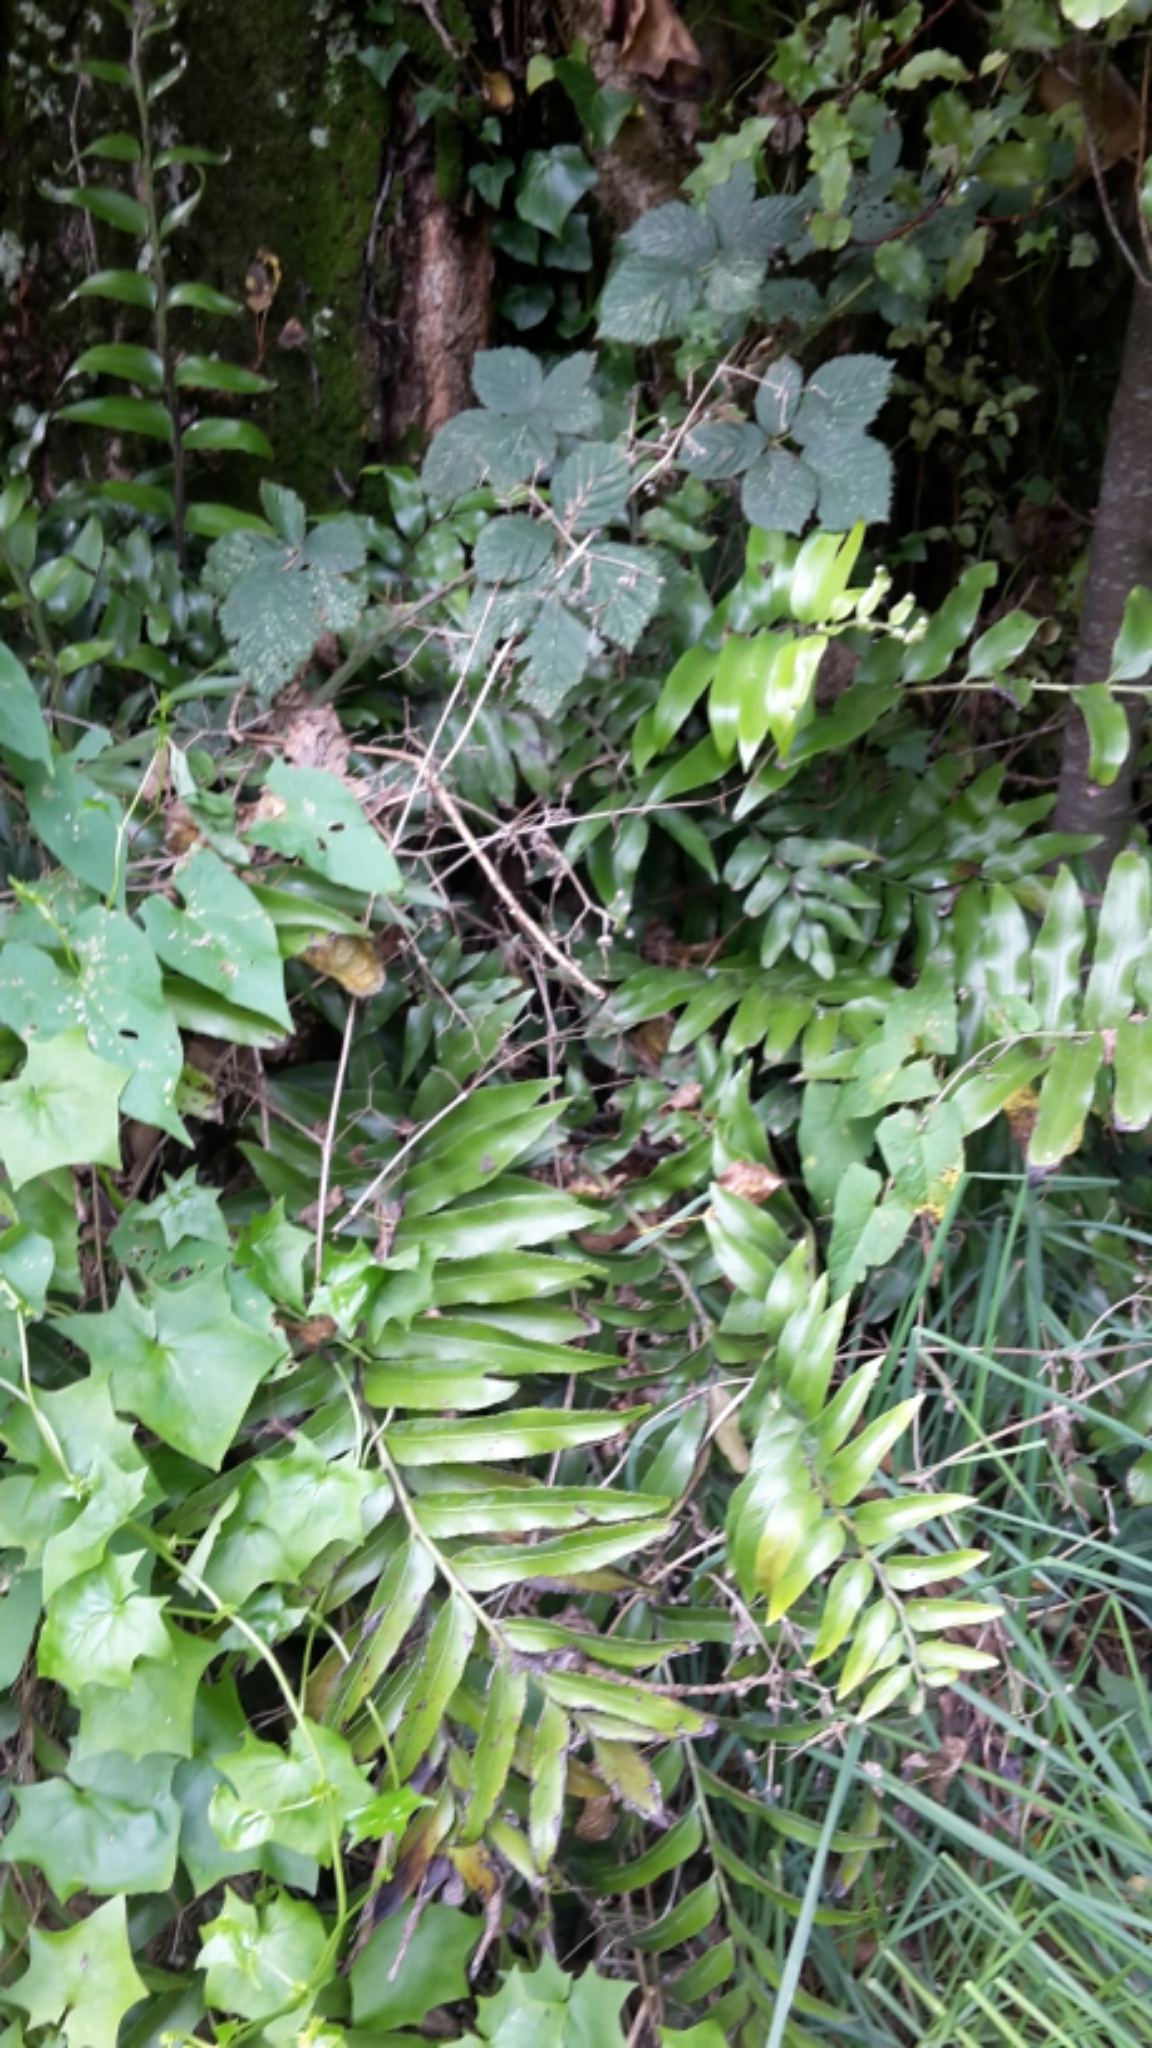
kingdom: Plantae
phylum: Tracheophyta
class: Polypodiopsida
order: Polypodiales
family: Aspleniaceae
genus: Asplenium
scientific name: Asplenium oblongifolium
